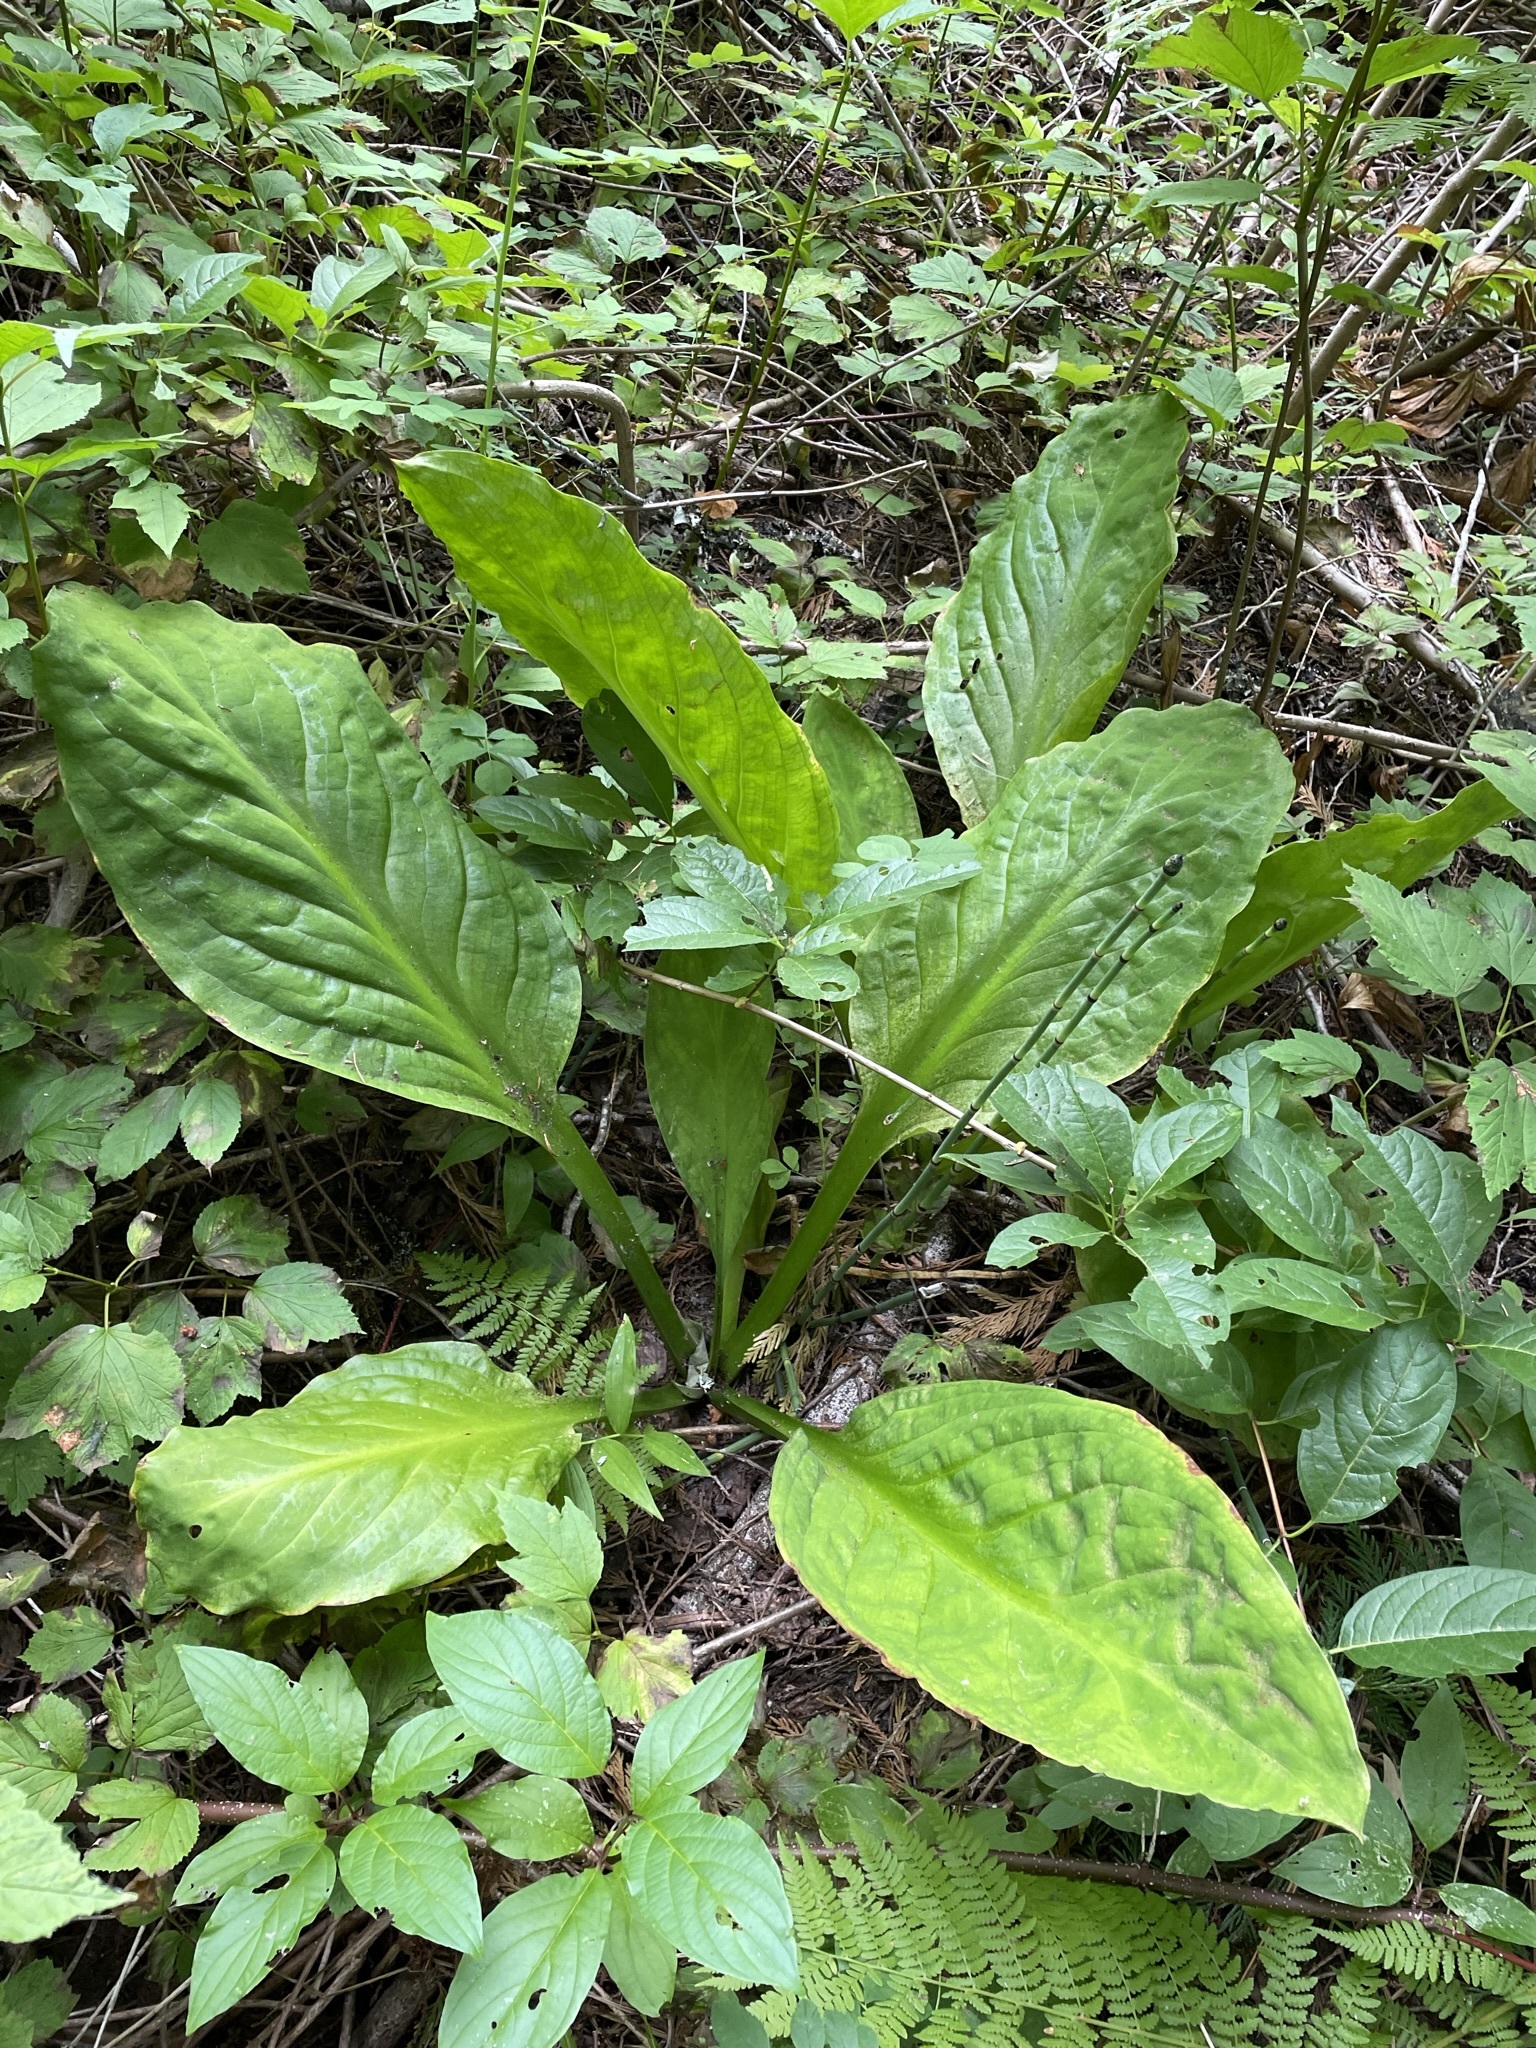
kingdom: Plantae
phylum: Tracheophyta
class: Liliopsida
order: Alismatales
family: Araceae
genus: Lysichiton
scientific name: Lysichiton americanus
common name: American skunk cabbage
